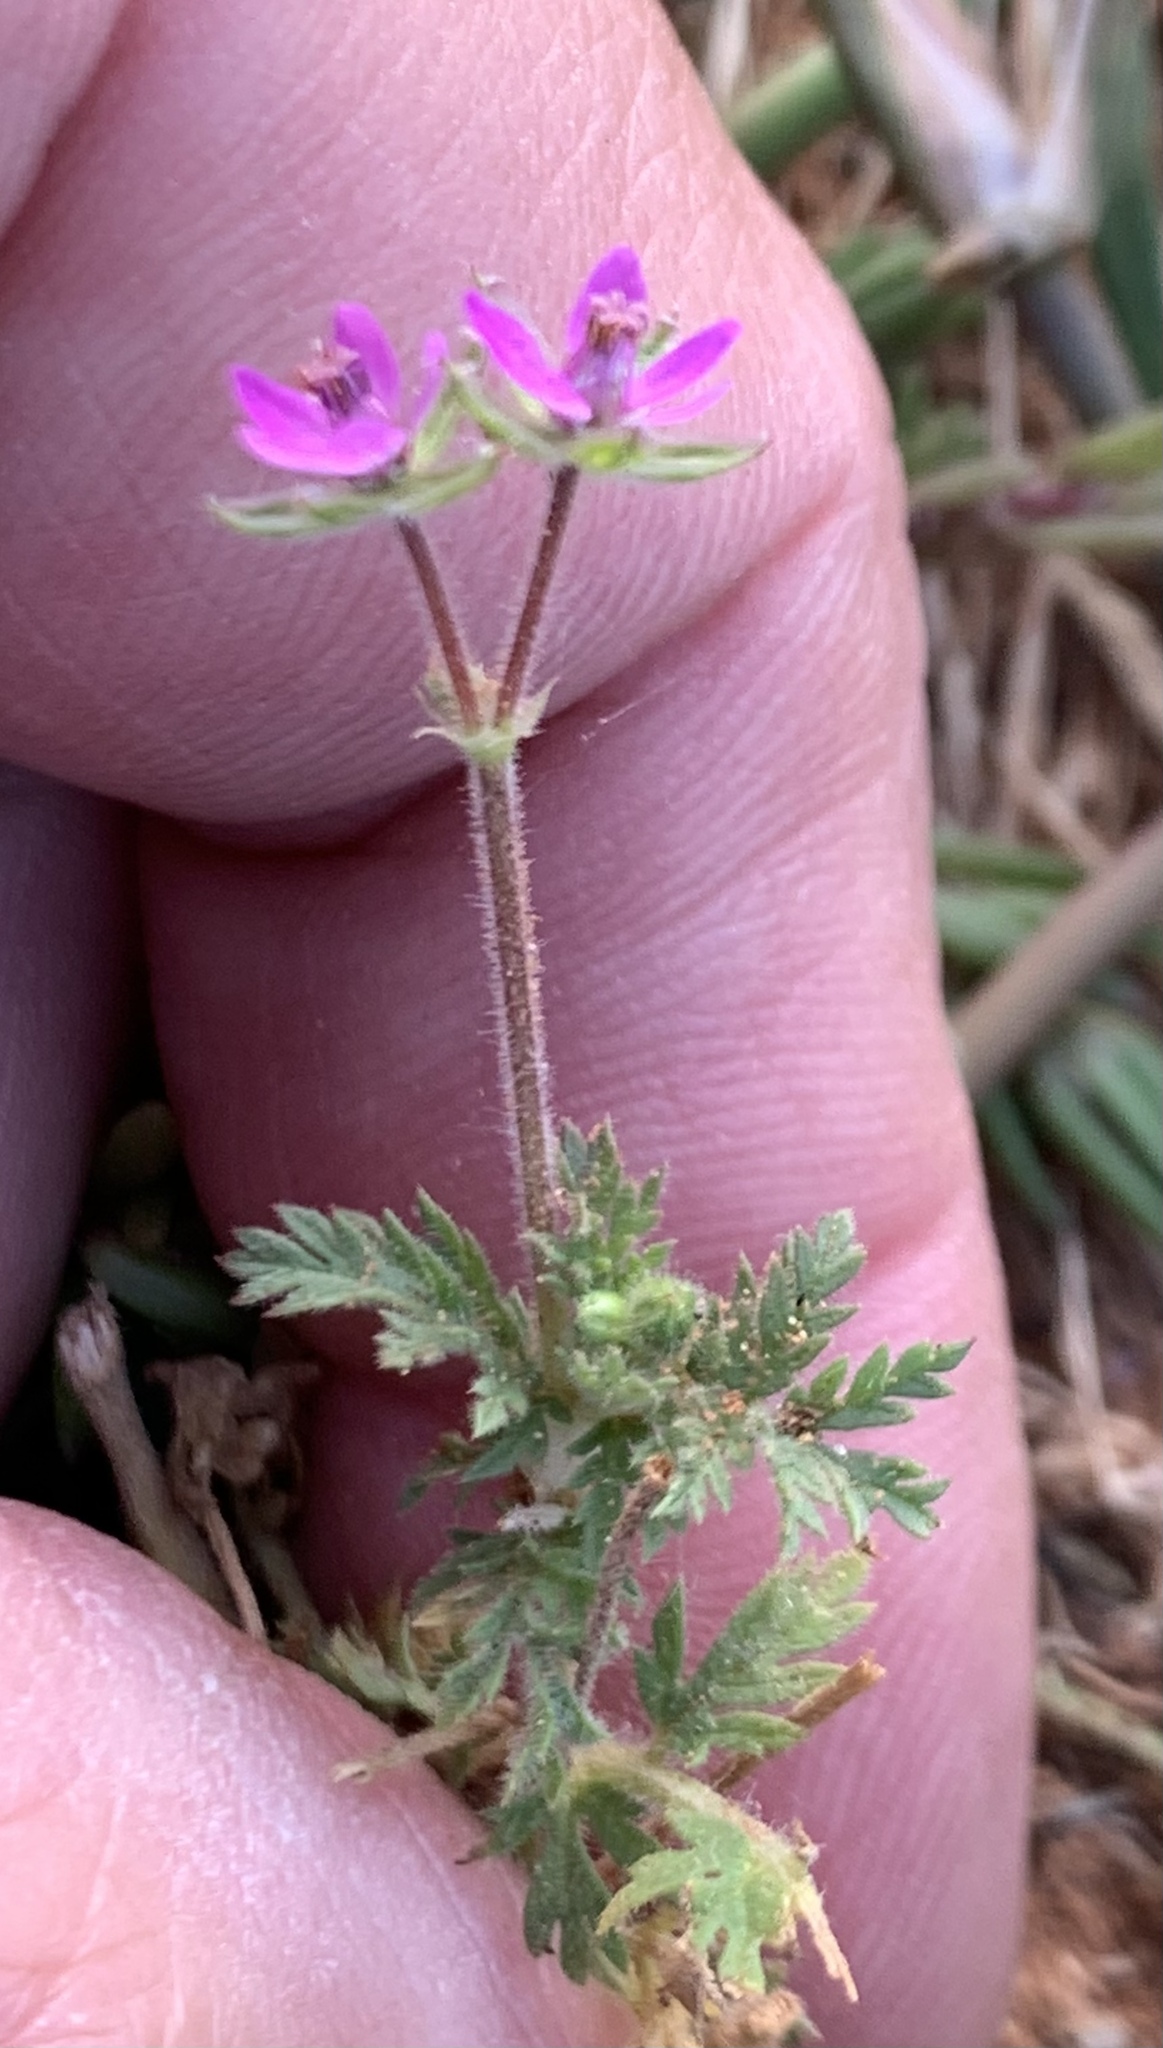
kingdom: Plantae
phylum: Tracheophyta
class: Magnoliopsida
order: Geraniales
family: Geraniaceae
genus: Erodium
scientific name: Erodium cicutarium
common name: Common stork's-bill
